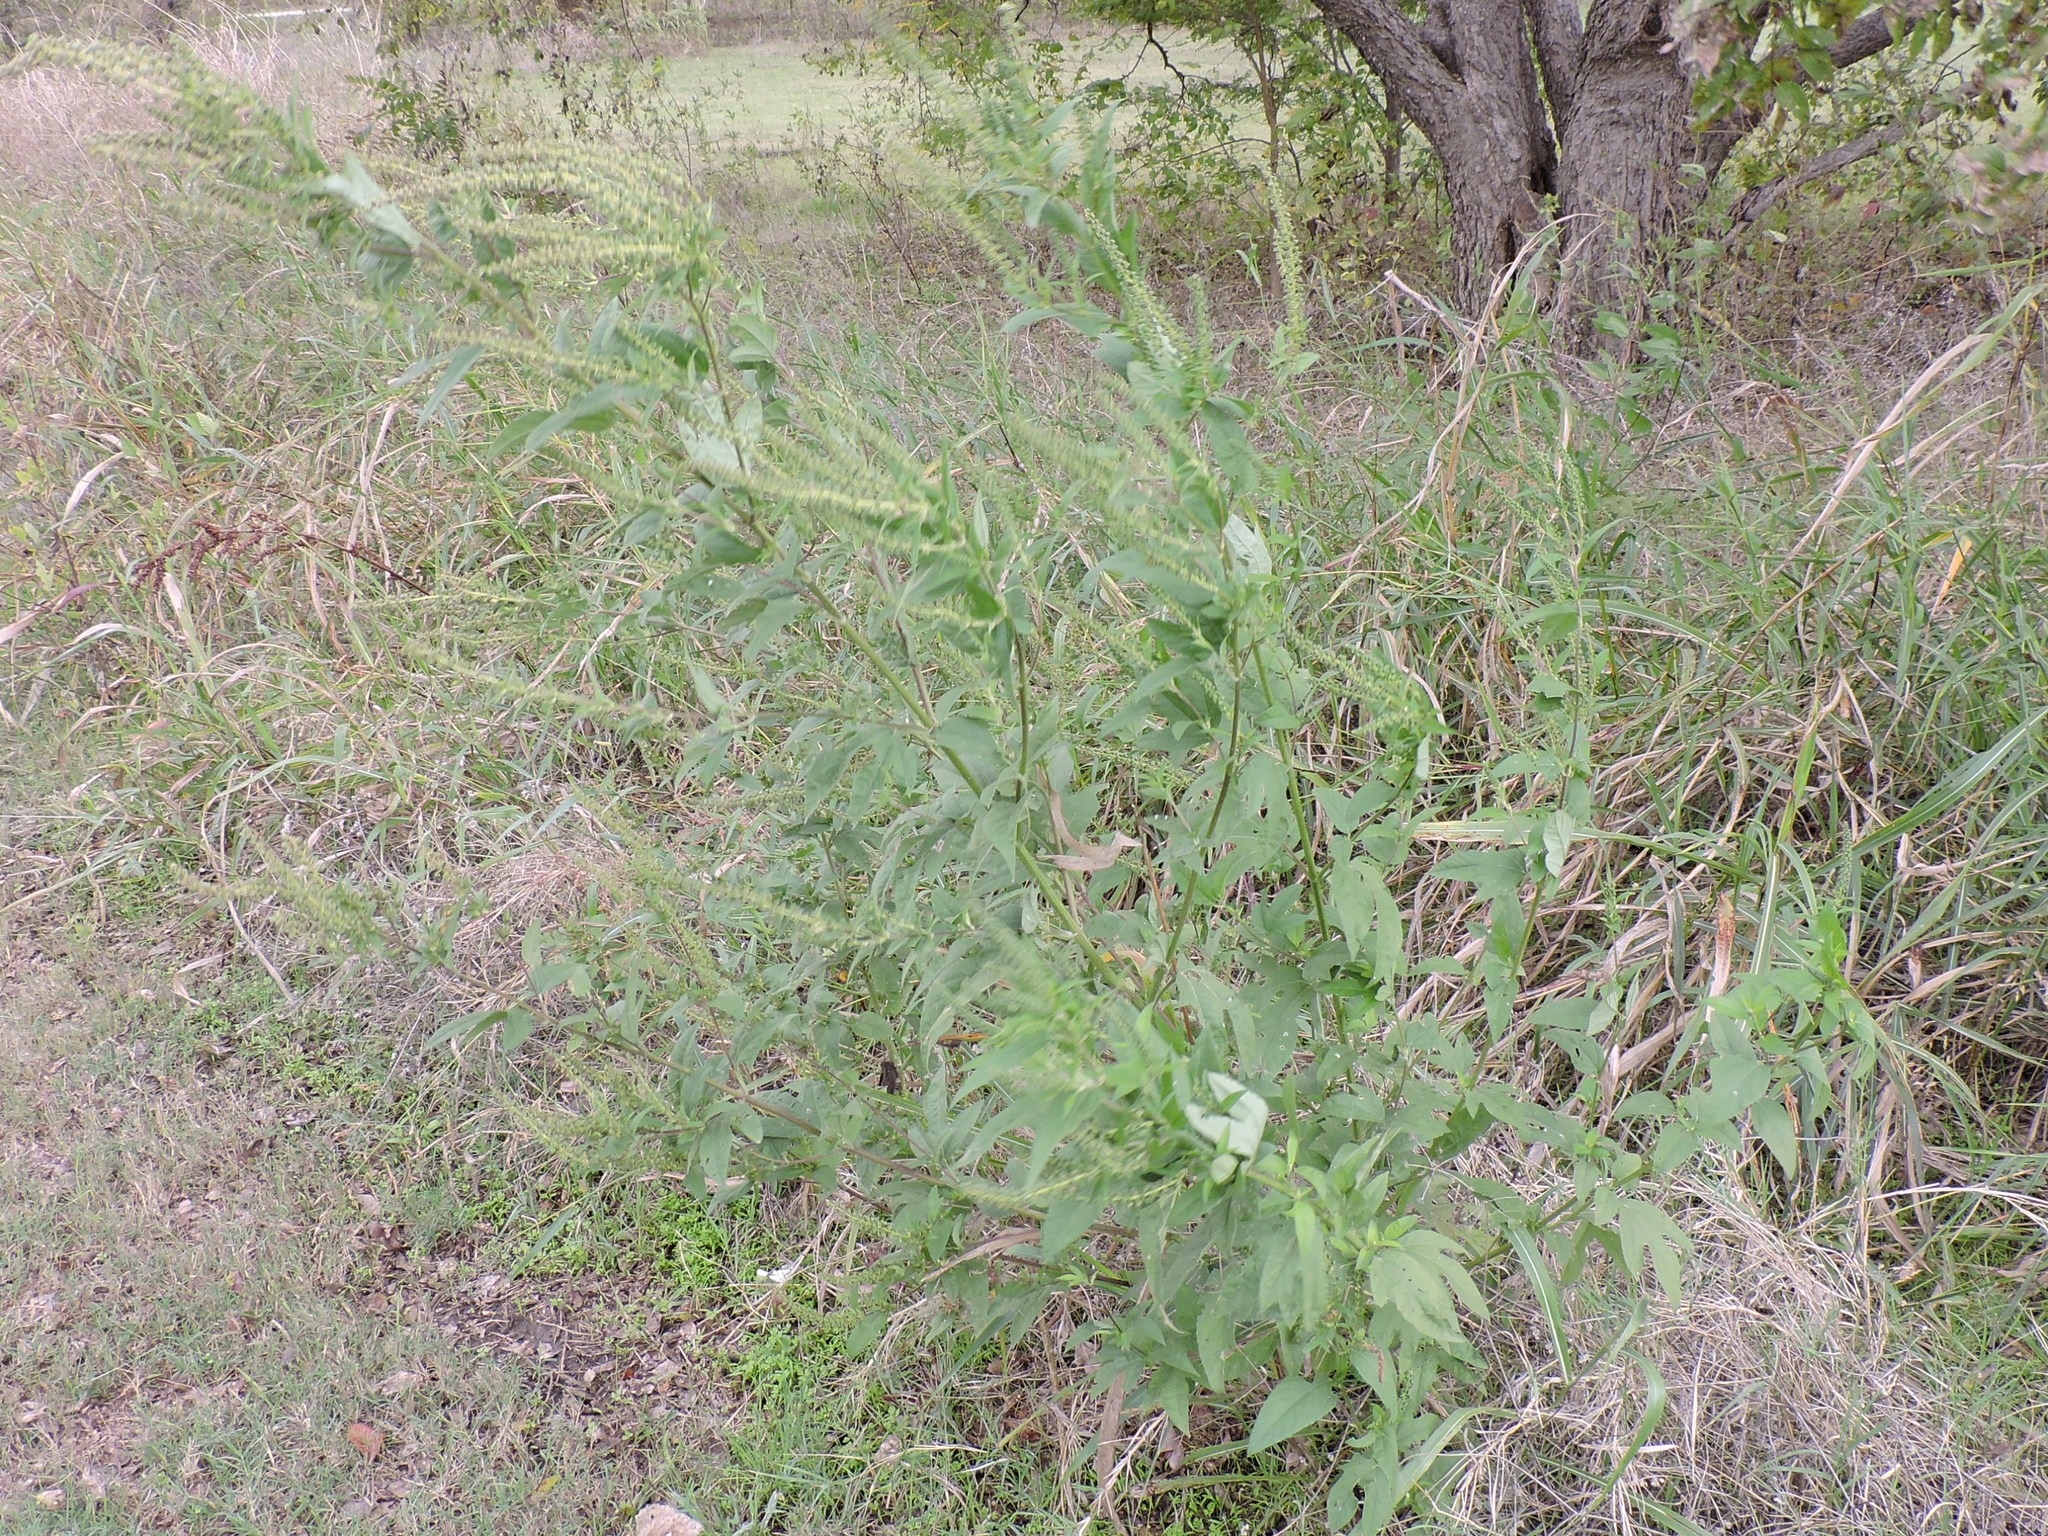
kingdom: Plantae
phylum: Tracheophyta
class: Magnoliopsida
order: Asterales
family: Asteraceae
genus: Ambrosia
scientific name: Ambrosia trifida
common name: Giant ragweed
